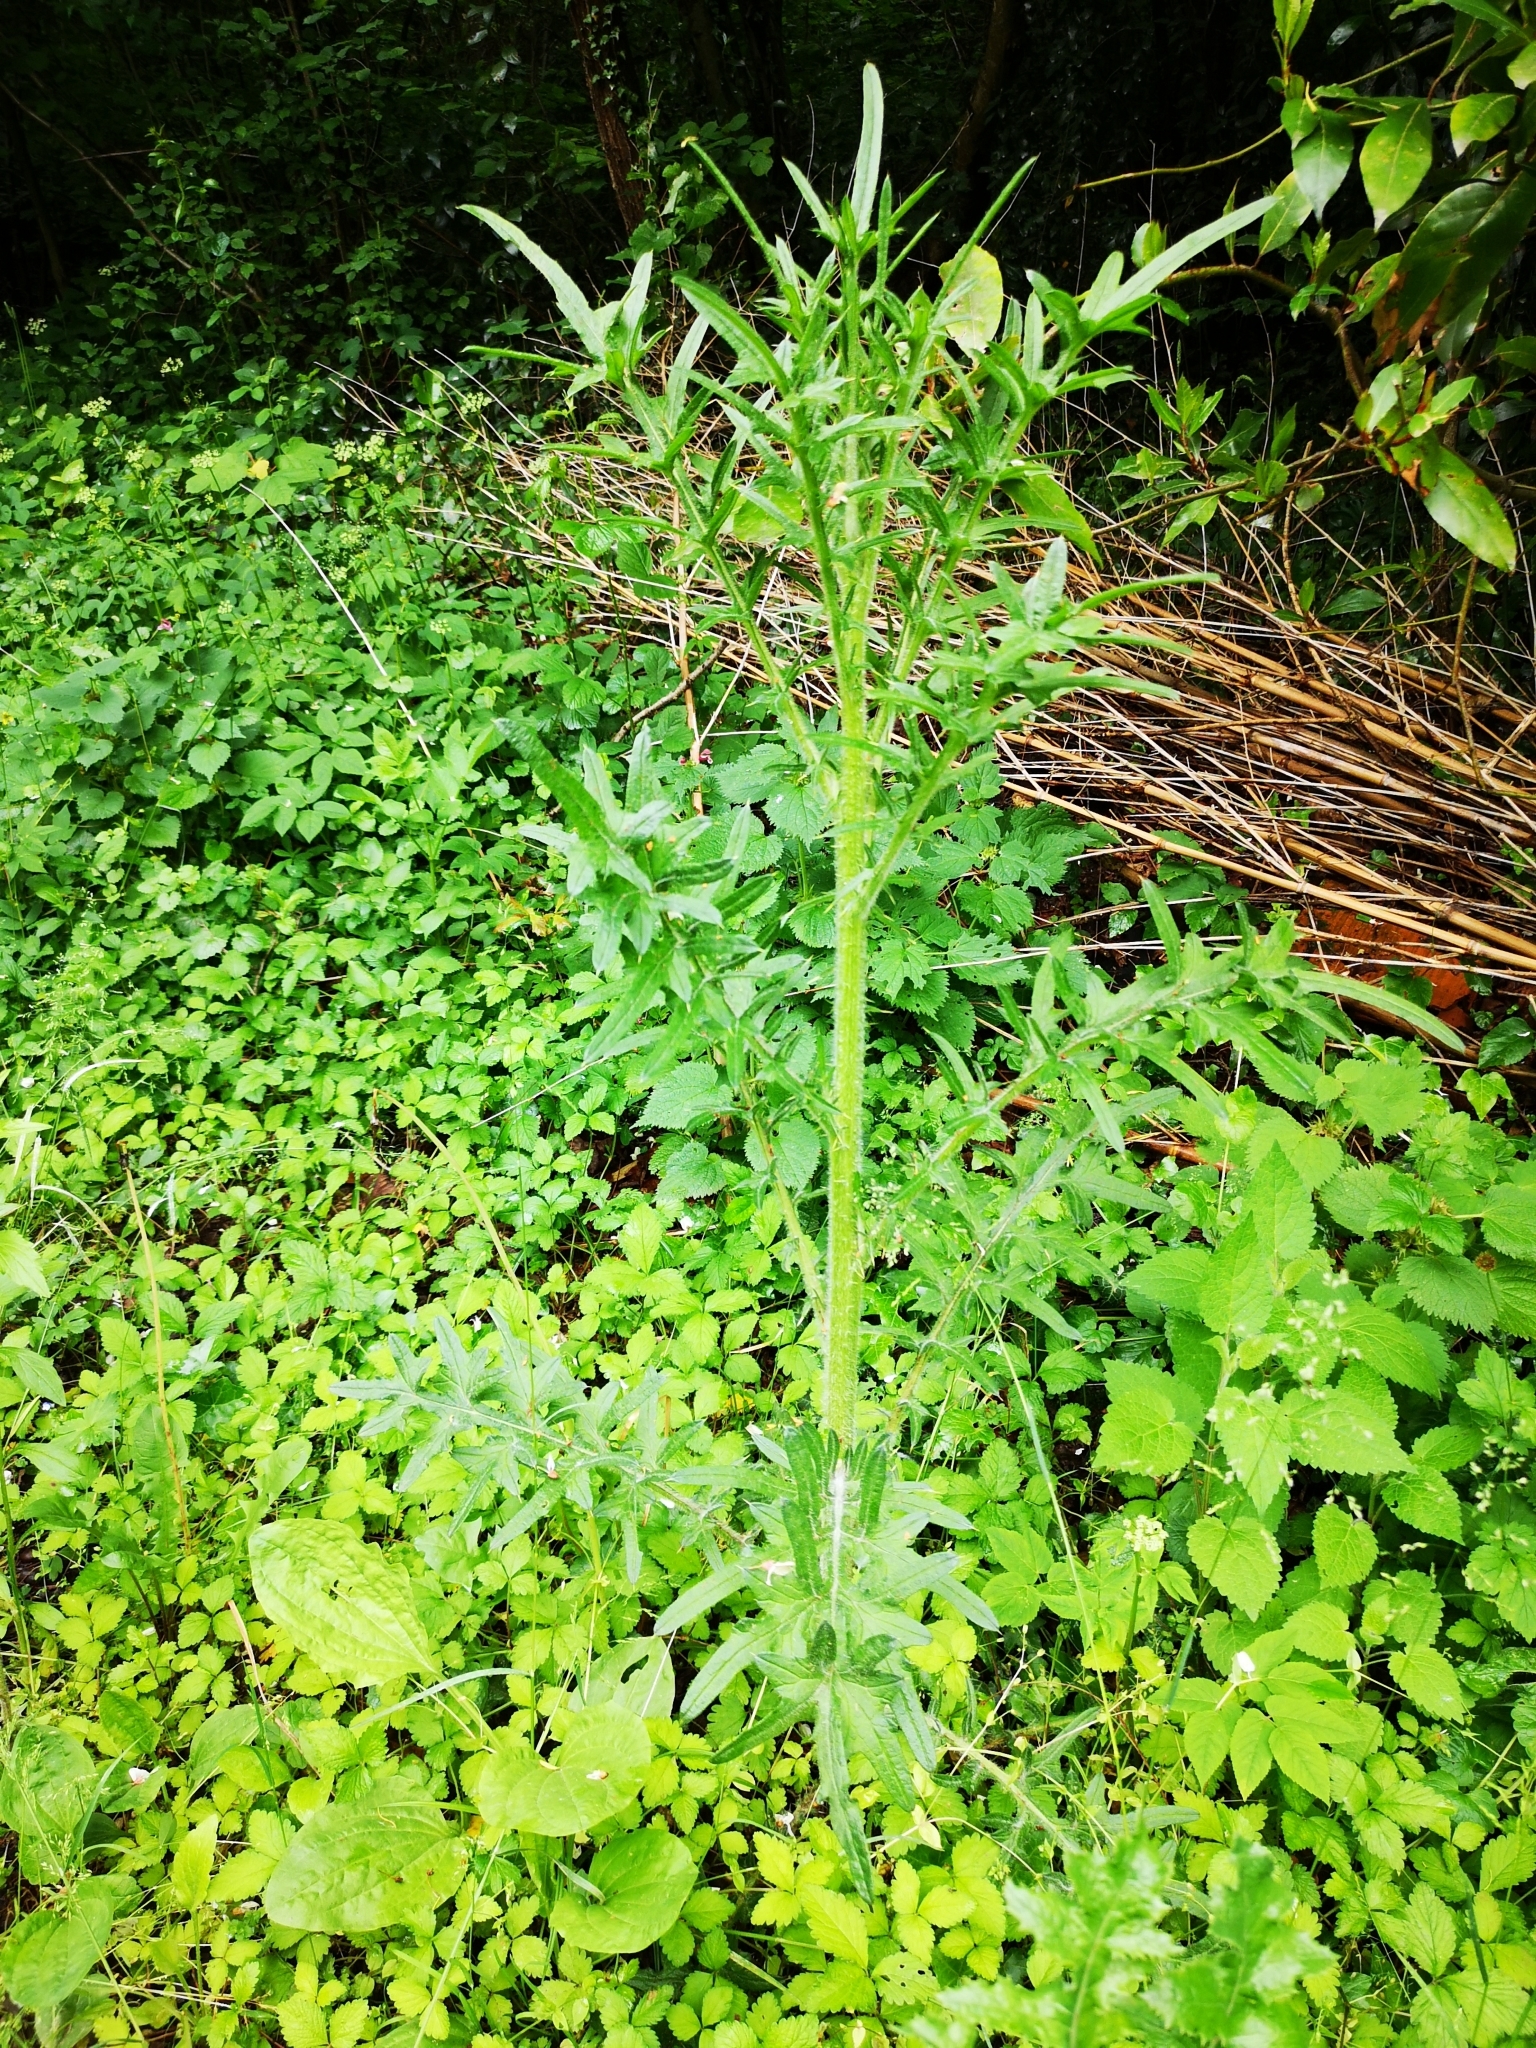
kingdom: Plantae
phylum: Tracheophyta
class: Magnoliopsida
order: Asterales
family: Asteraceae
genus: Cirsium
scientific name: Cirsium vulgare
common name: Bull thistle
